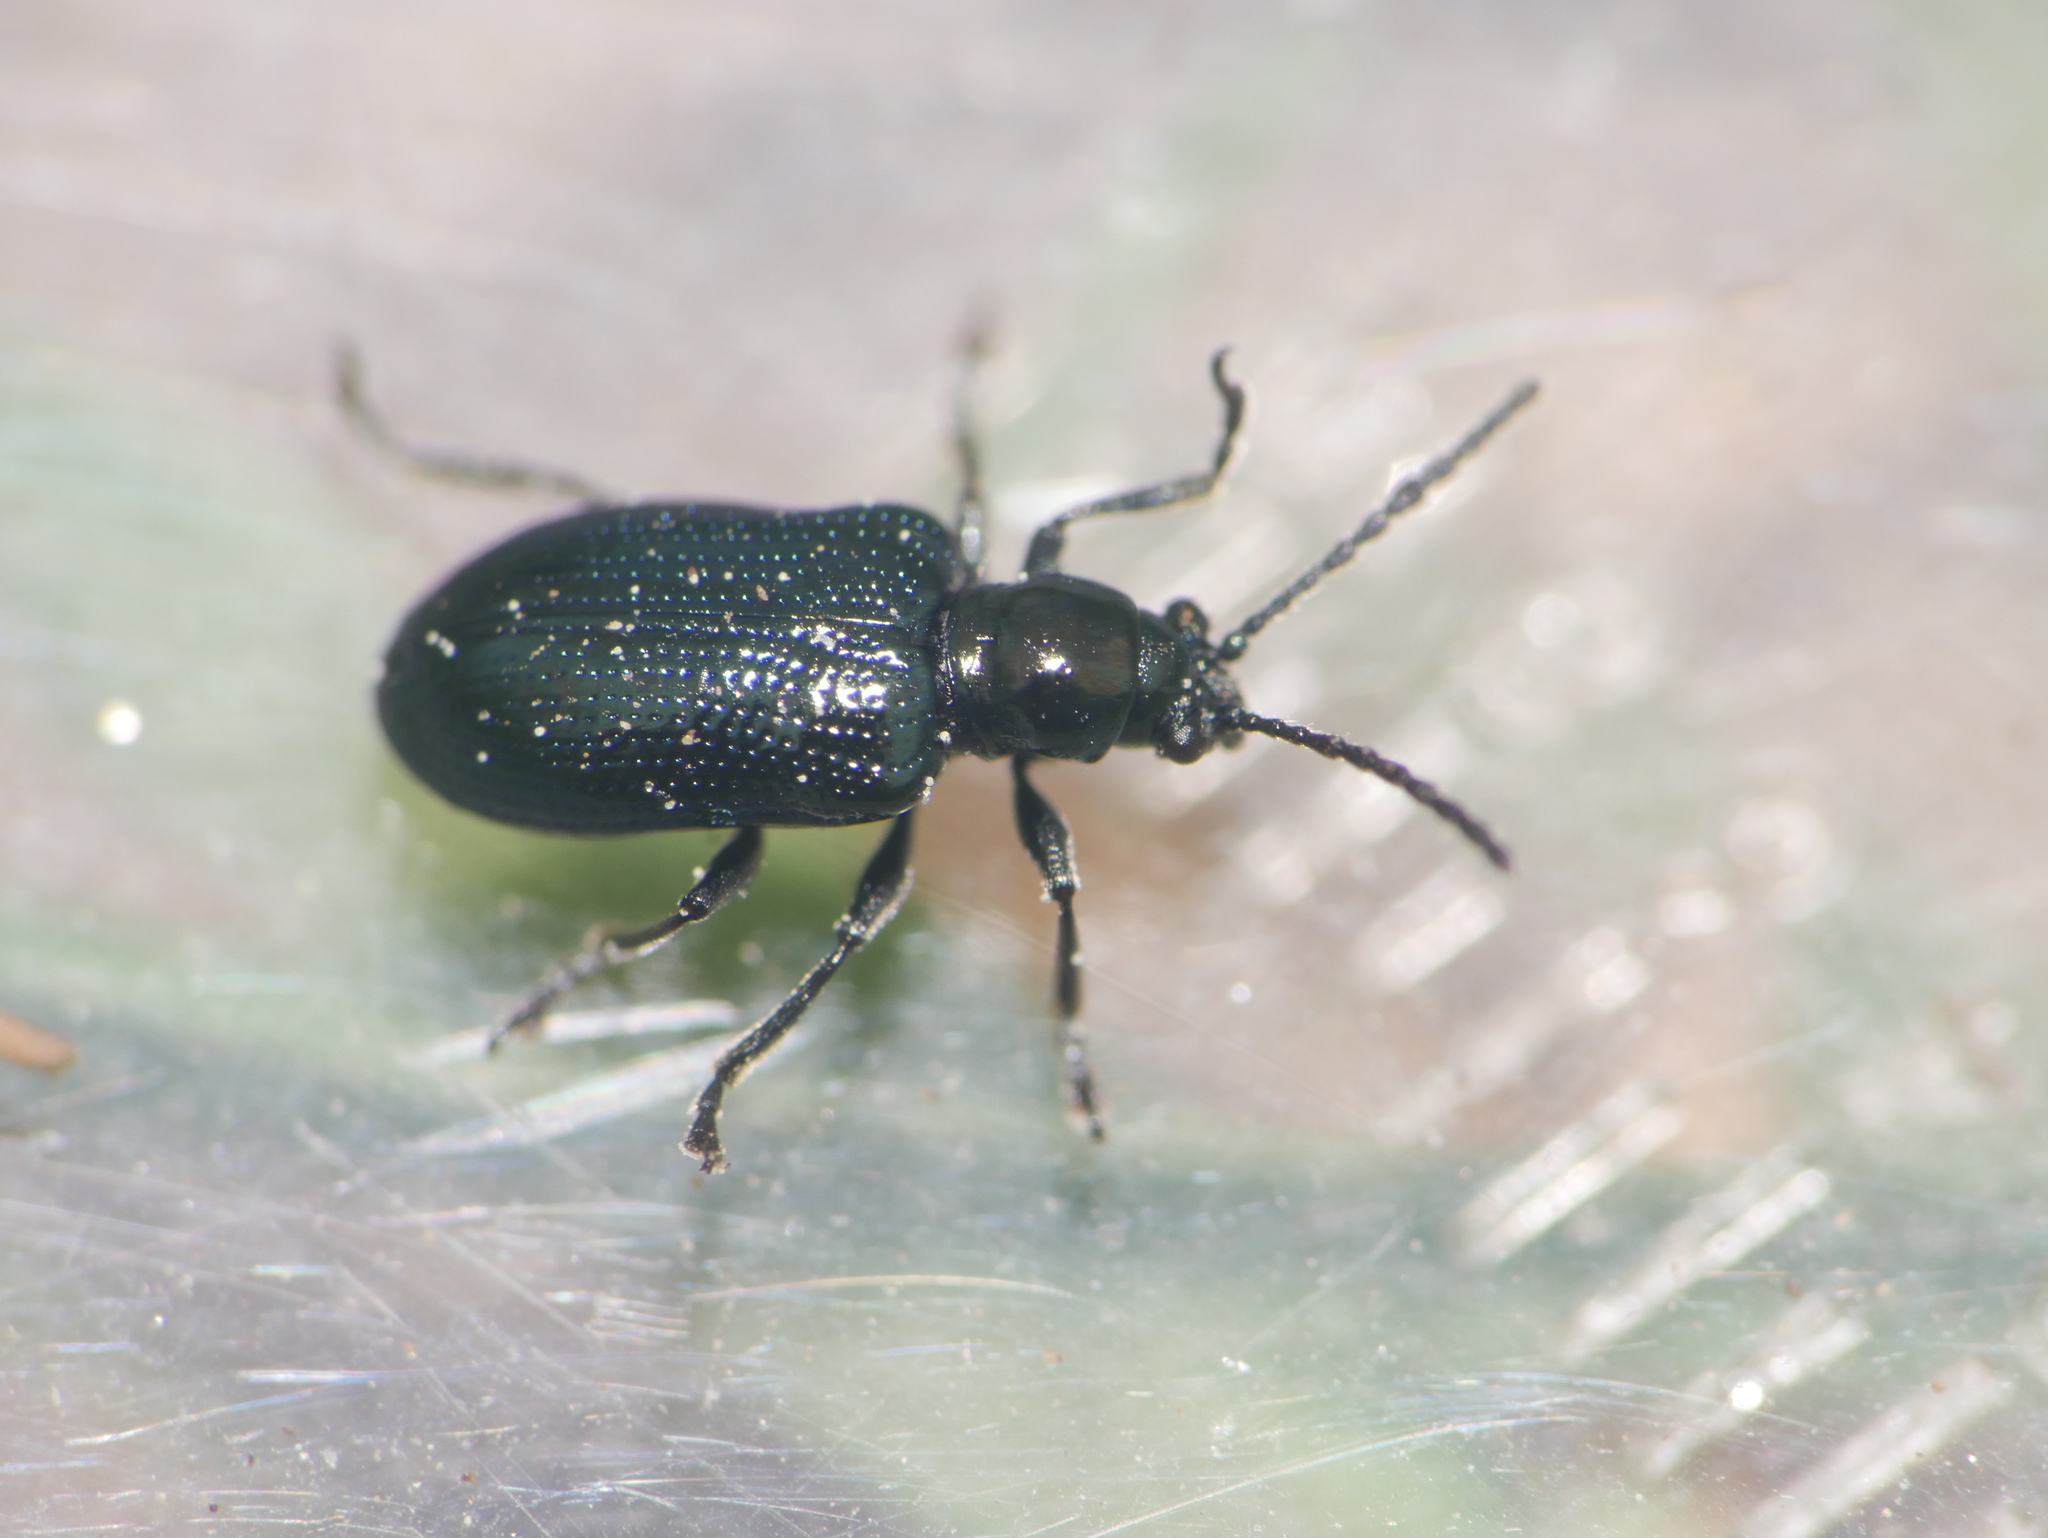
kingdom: Animalia
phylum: Arthropoda
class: Insecta
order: Coleoptera
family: Chrysomelidae
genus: Oulema
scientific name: Oulema gallaeciana
